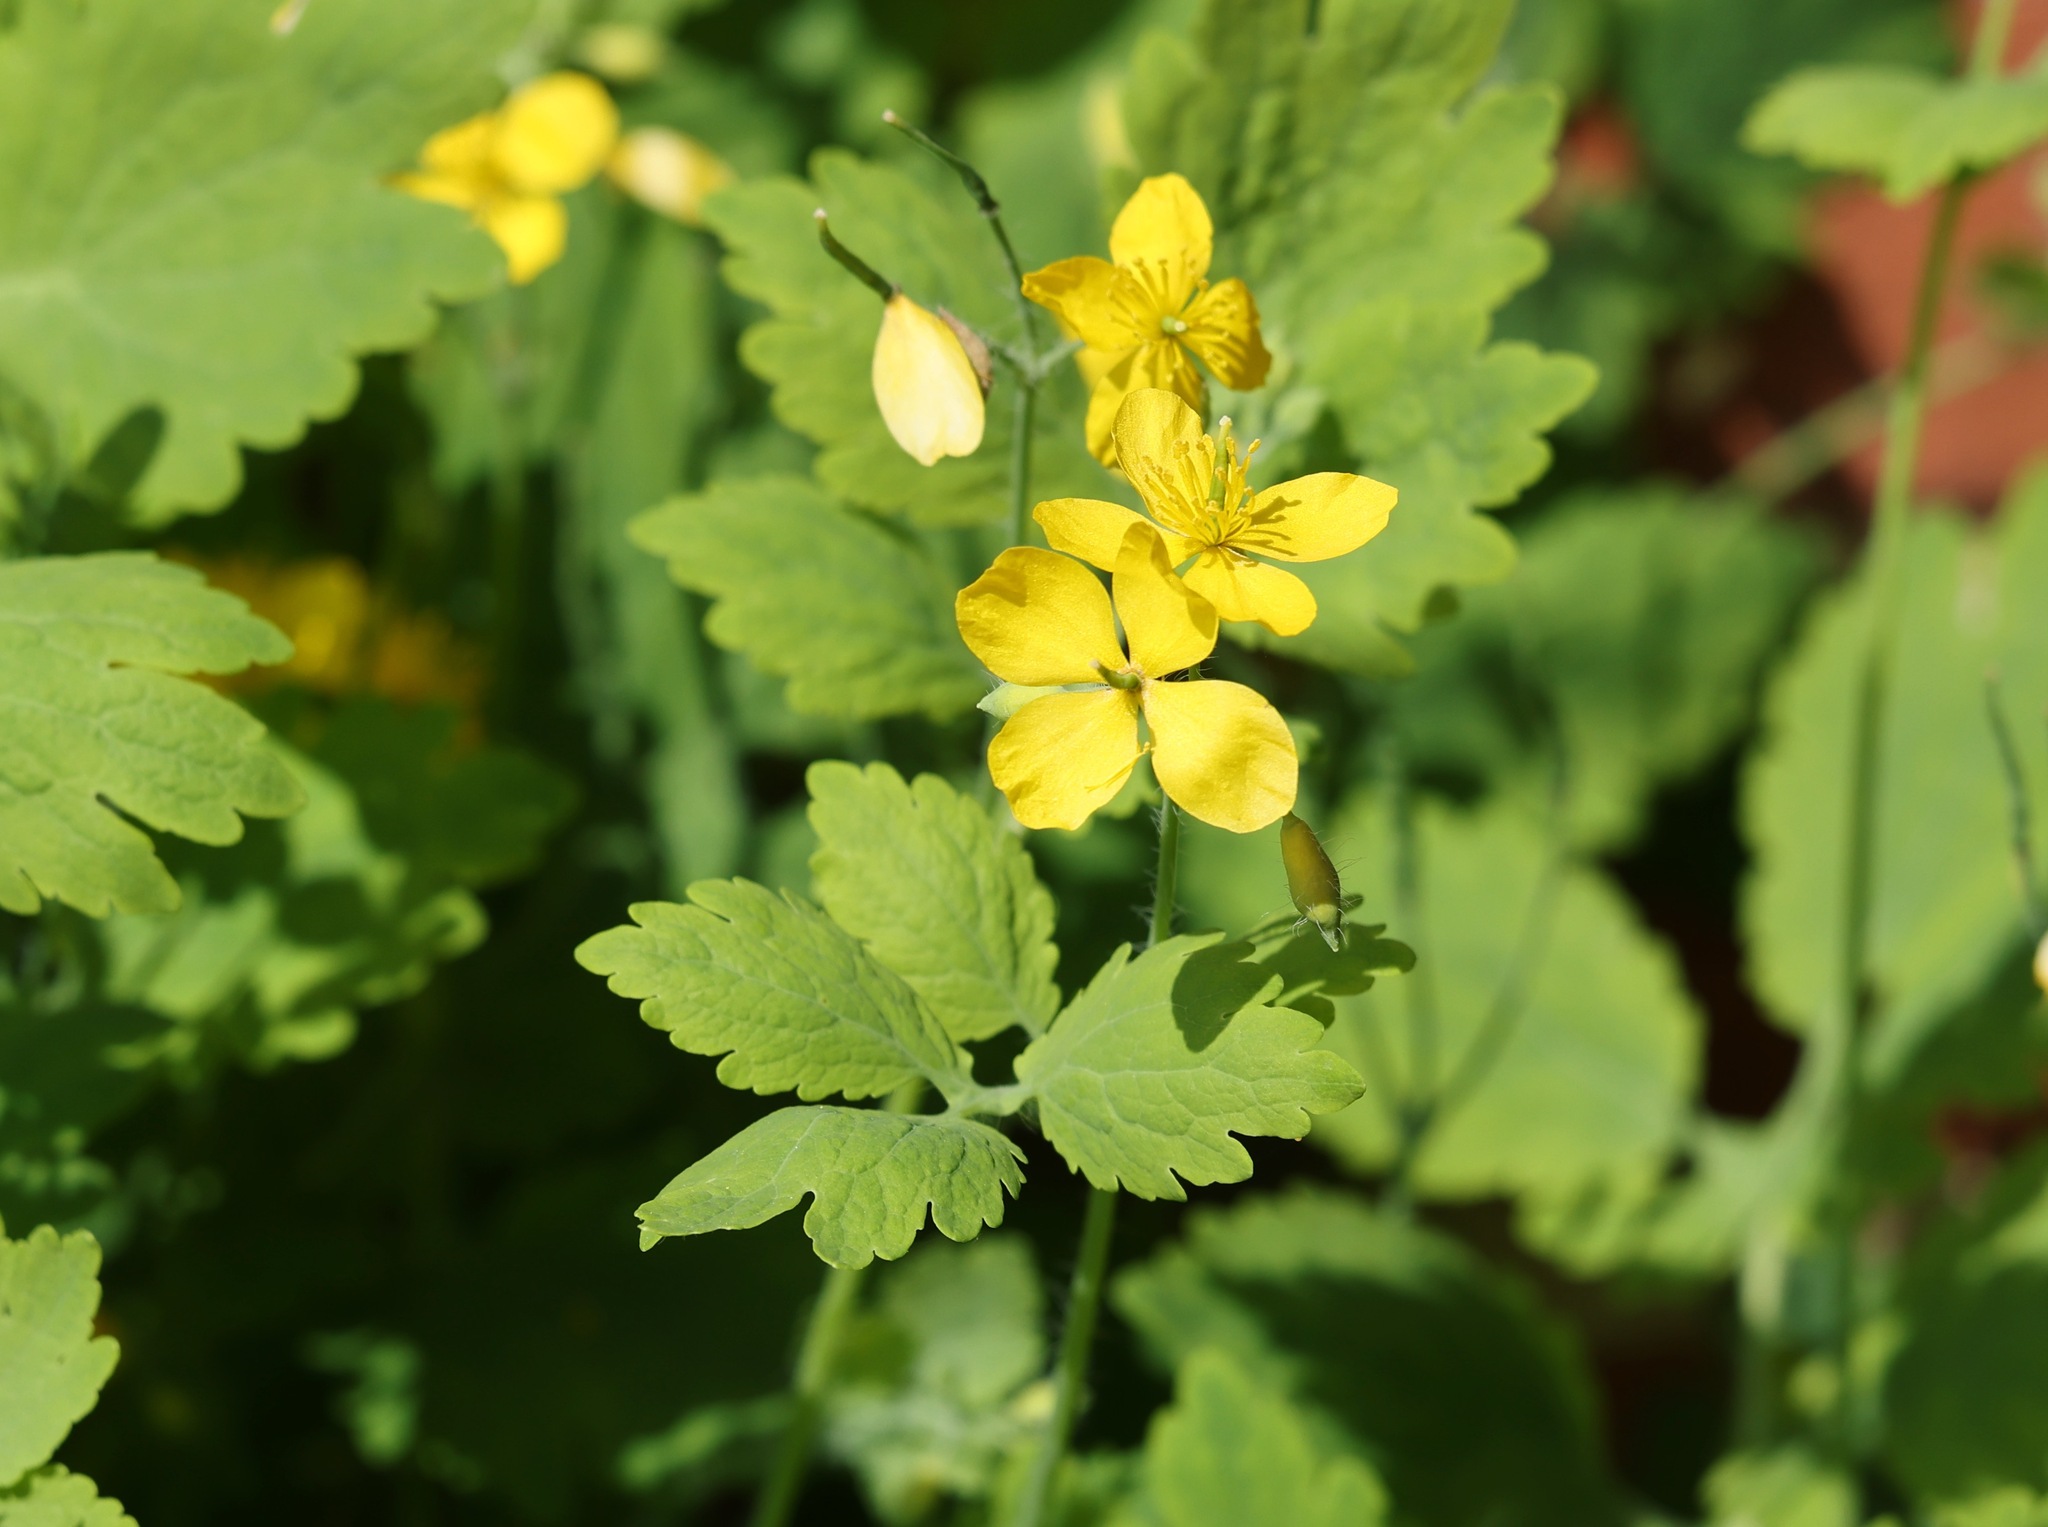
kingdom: Plantae
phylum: Tracheophyta
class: Magnoliopsida
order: Ranunculales
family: Papaveraceae
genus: Chelidonium
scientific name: Chelidonium majus
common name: Greater celandine
